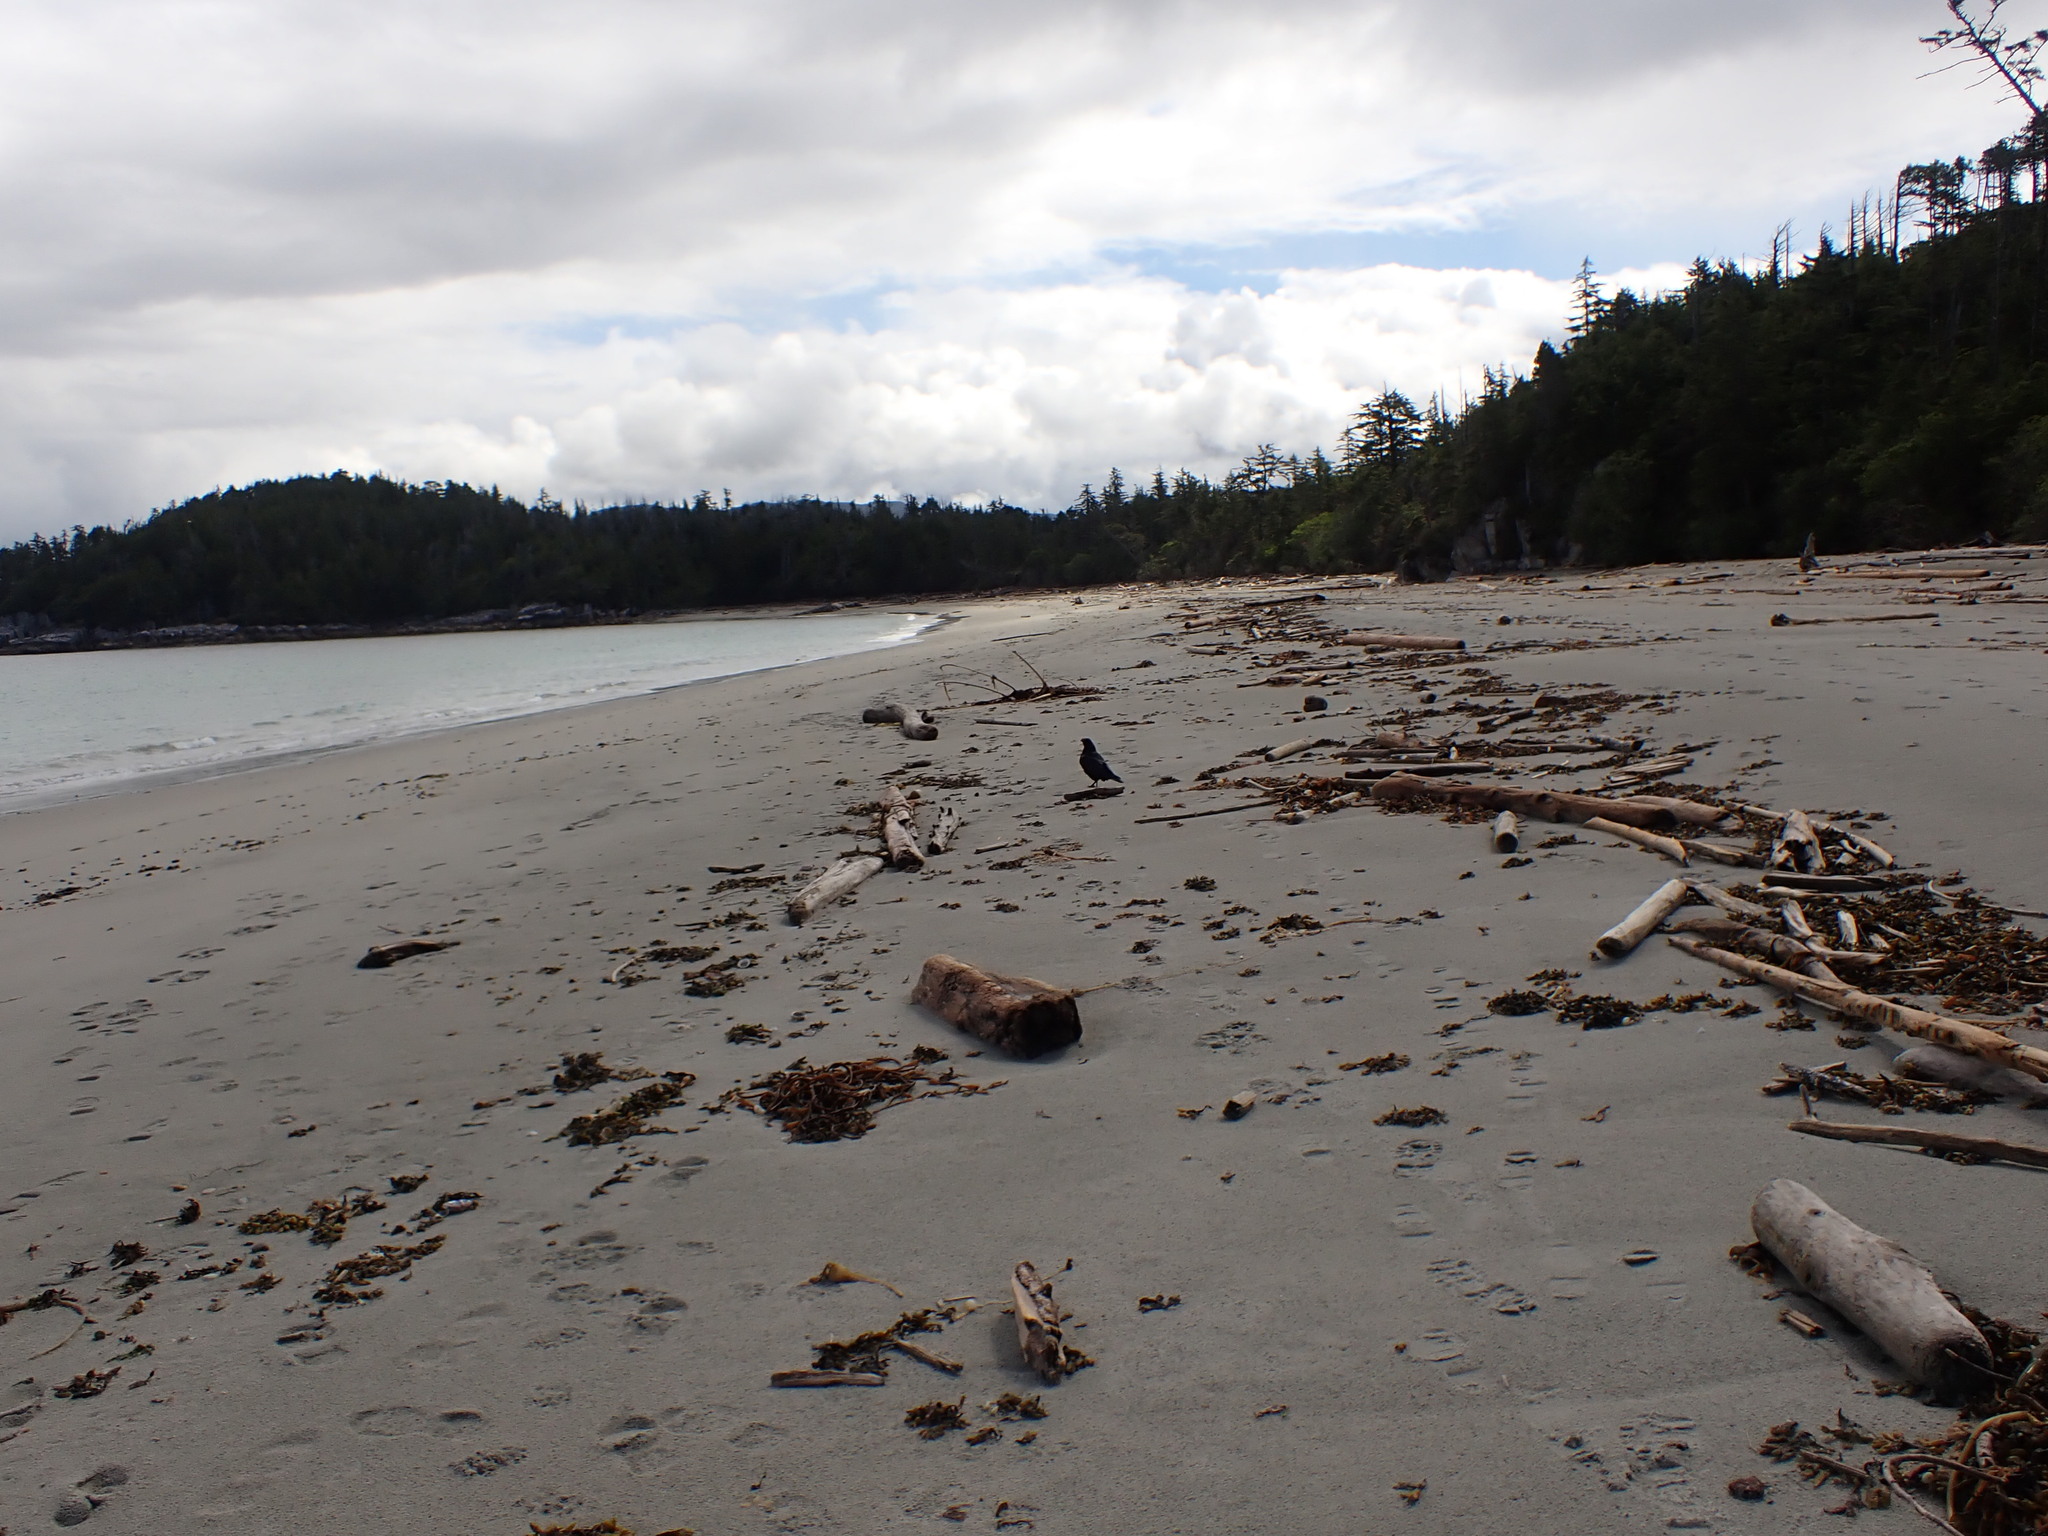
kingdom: Animalia
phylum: Chordata
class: Aves
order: Passeriformes
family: Corvidae
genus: Corvus
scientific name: Corvus corax
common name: Common raven
